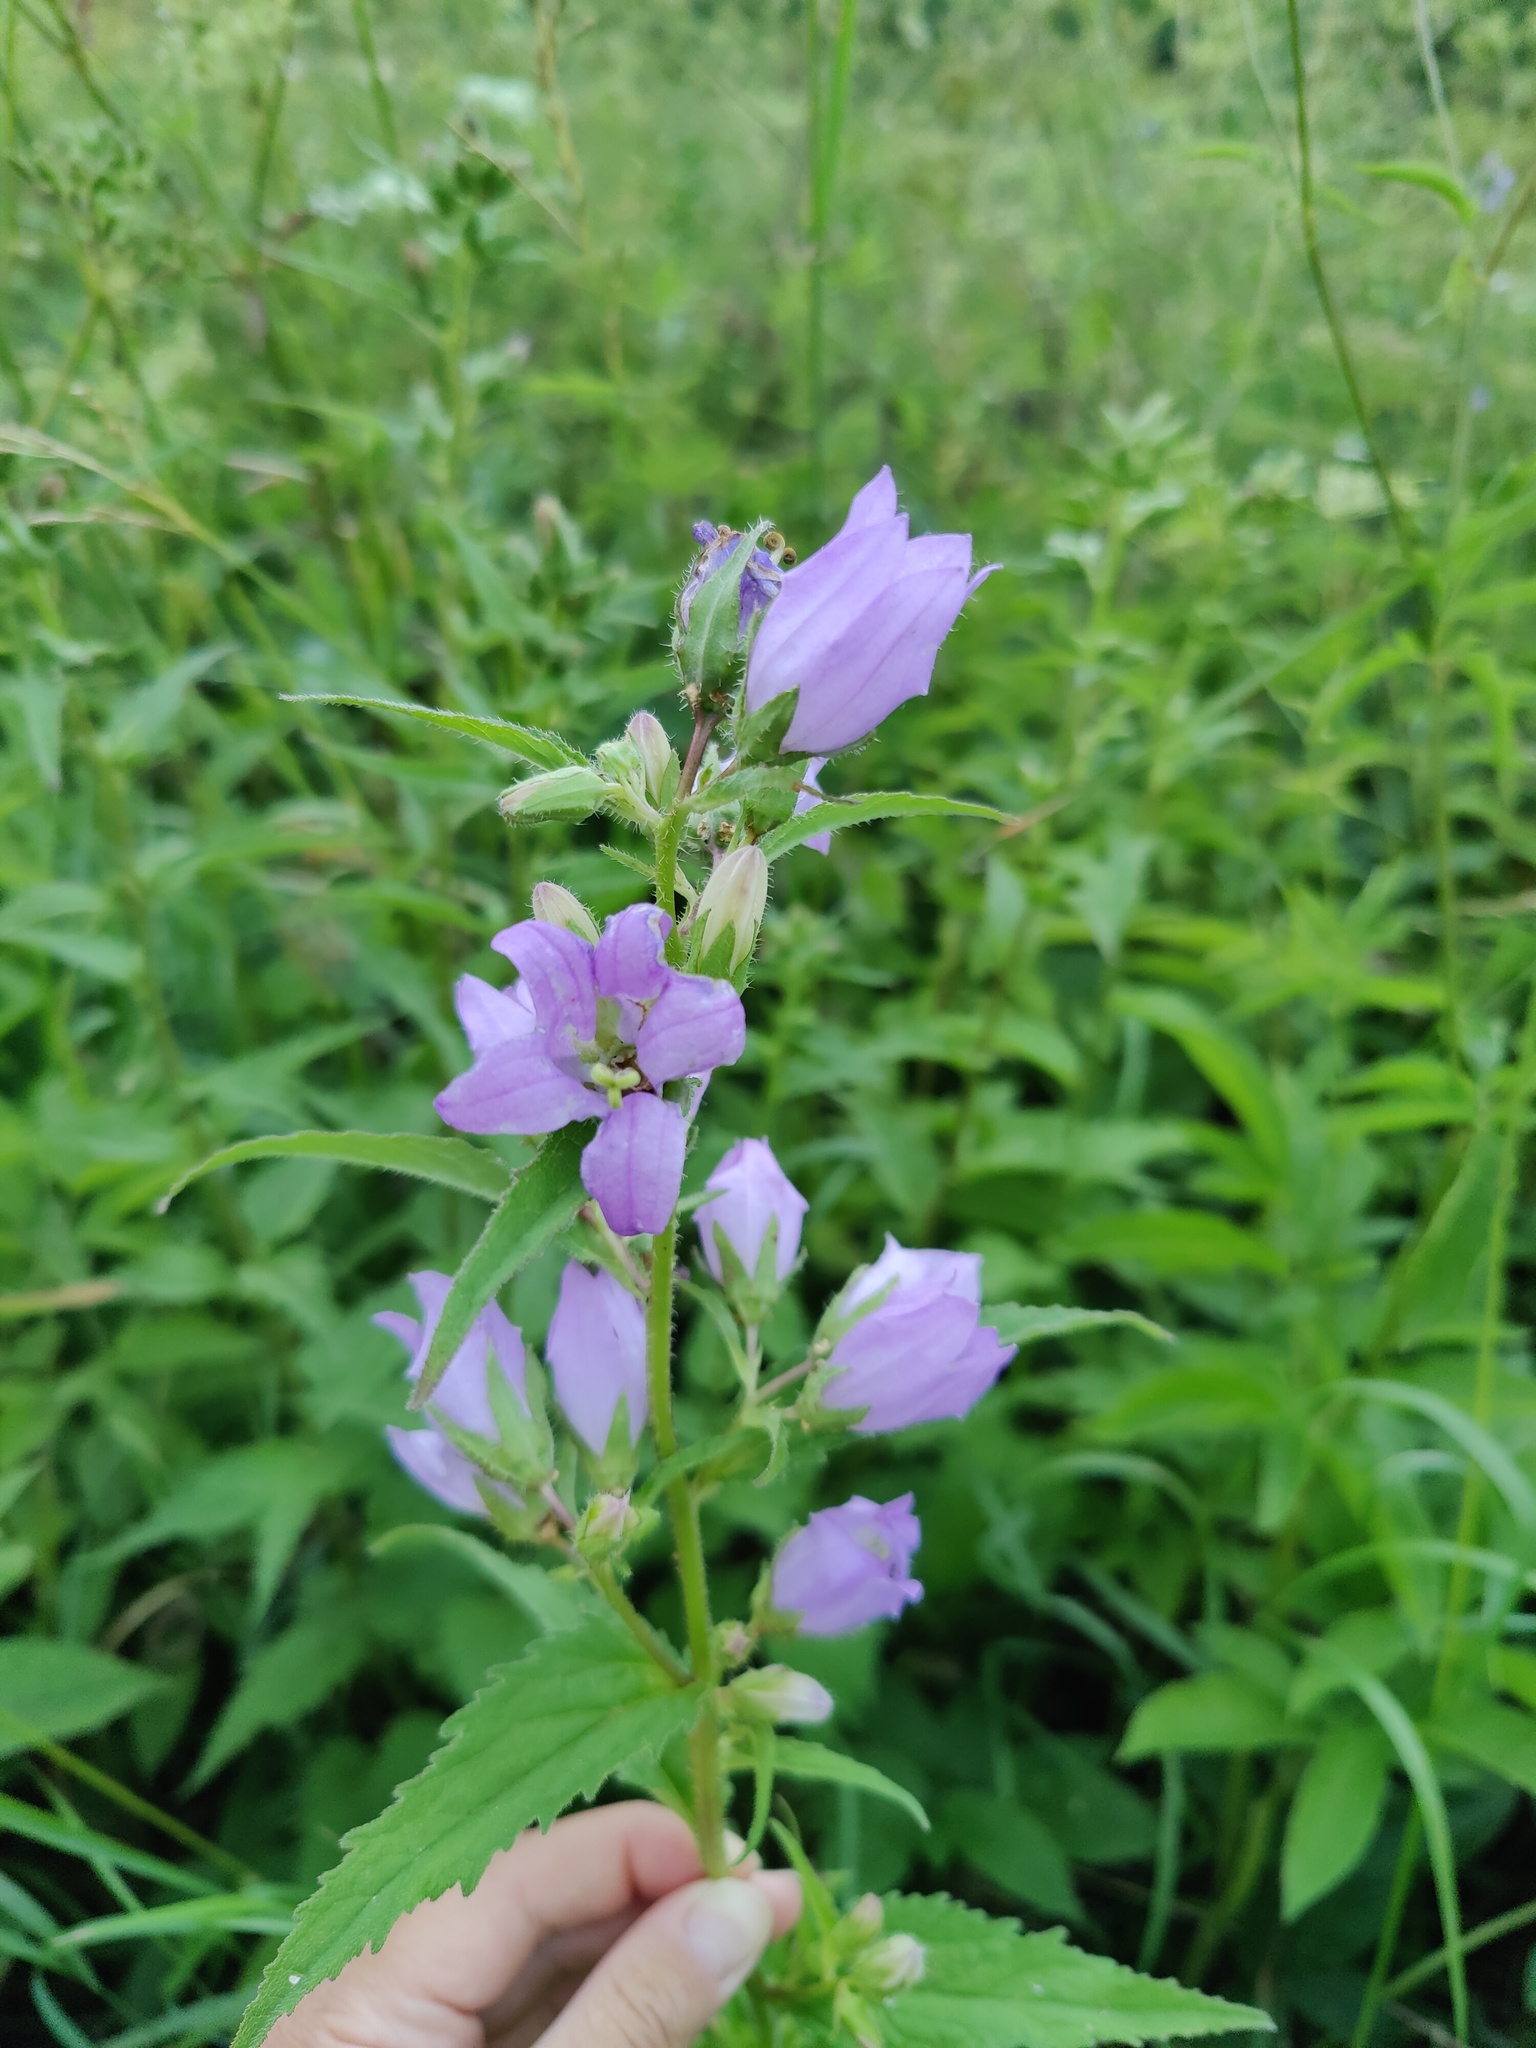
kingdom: Plantae
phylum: Tracheophyta
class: Magnoliopsida
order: Asterales
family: Campanulaceae
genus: Campanula
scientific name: Campanula trachelium
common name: Nettle-leaved bellflower
